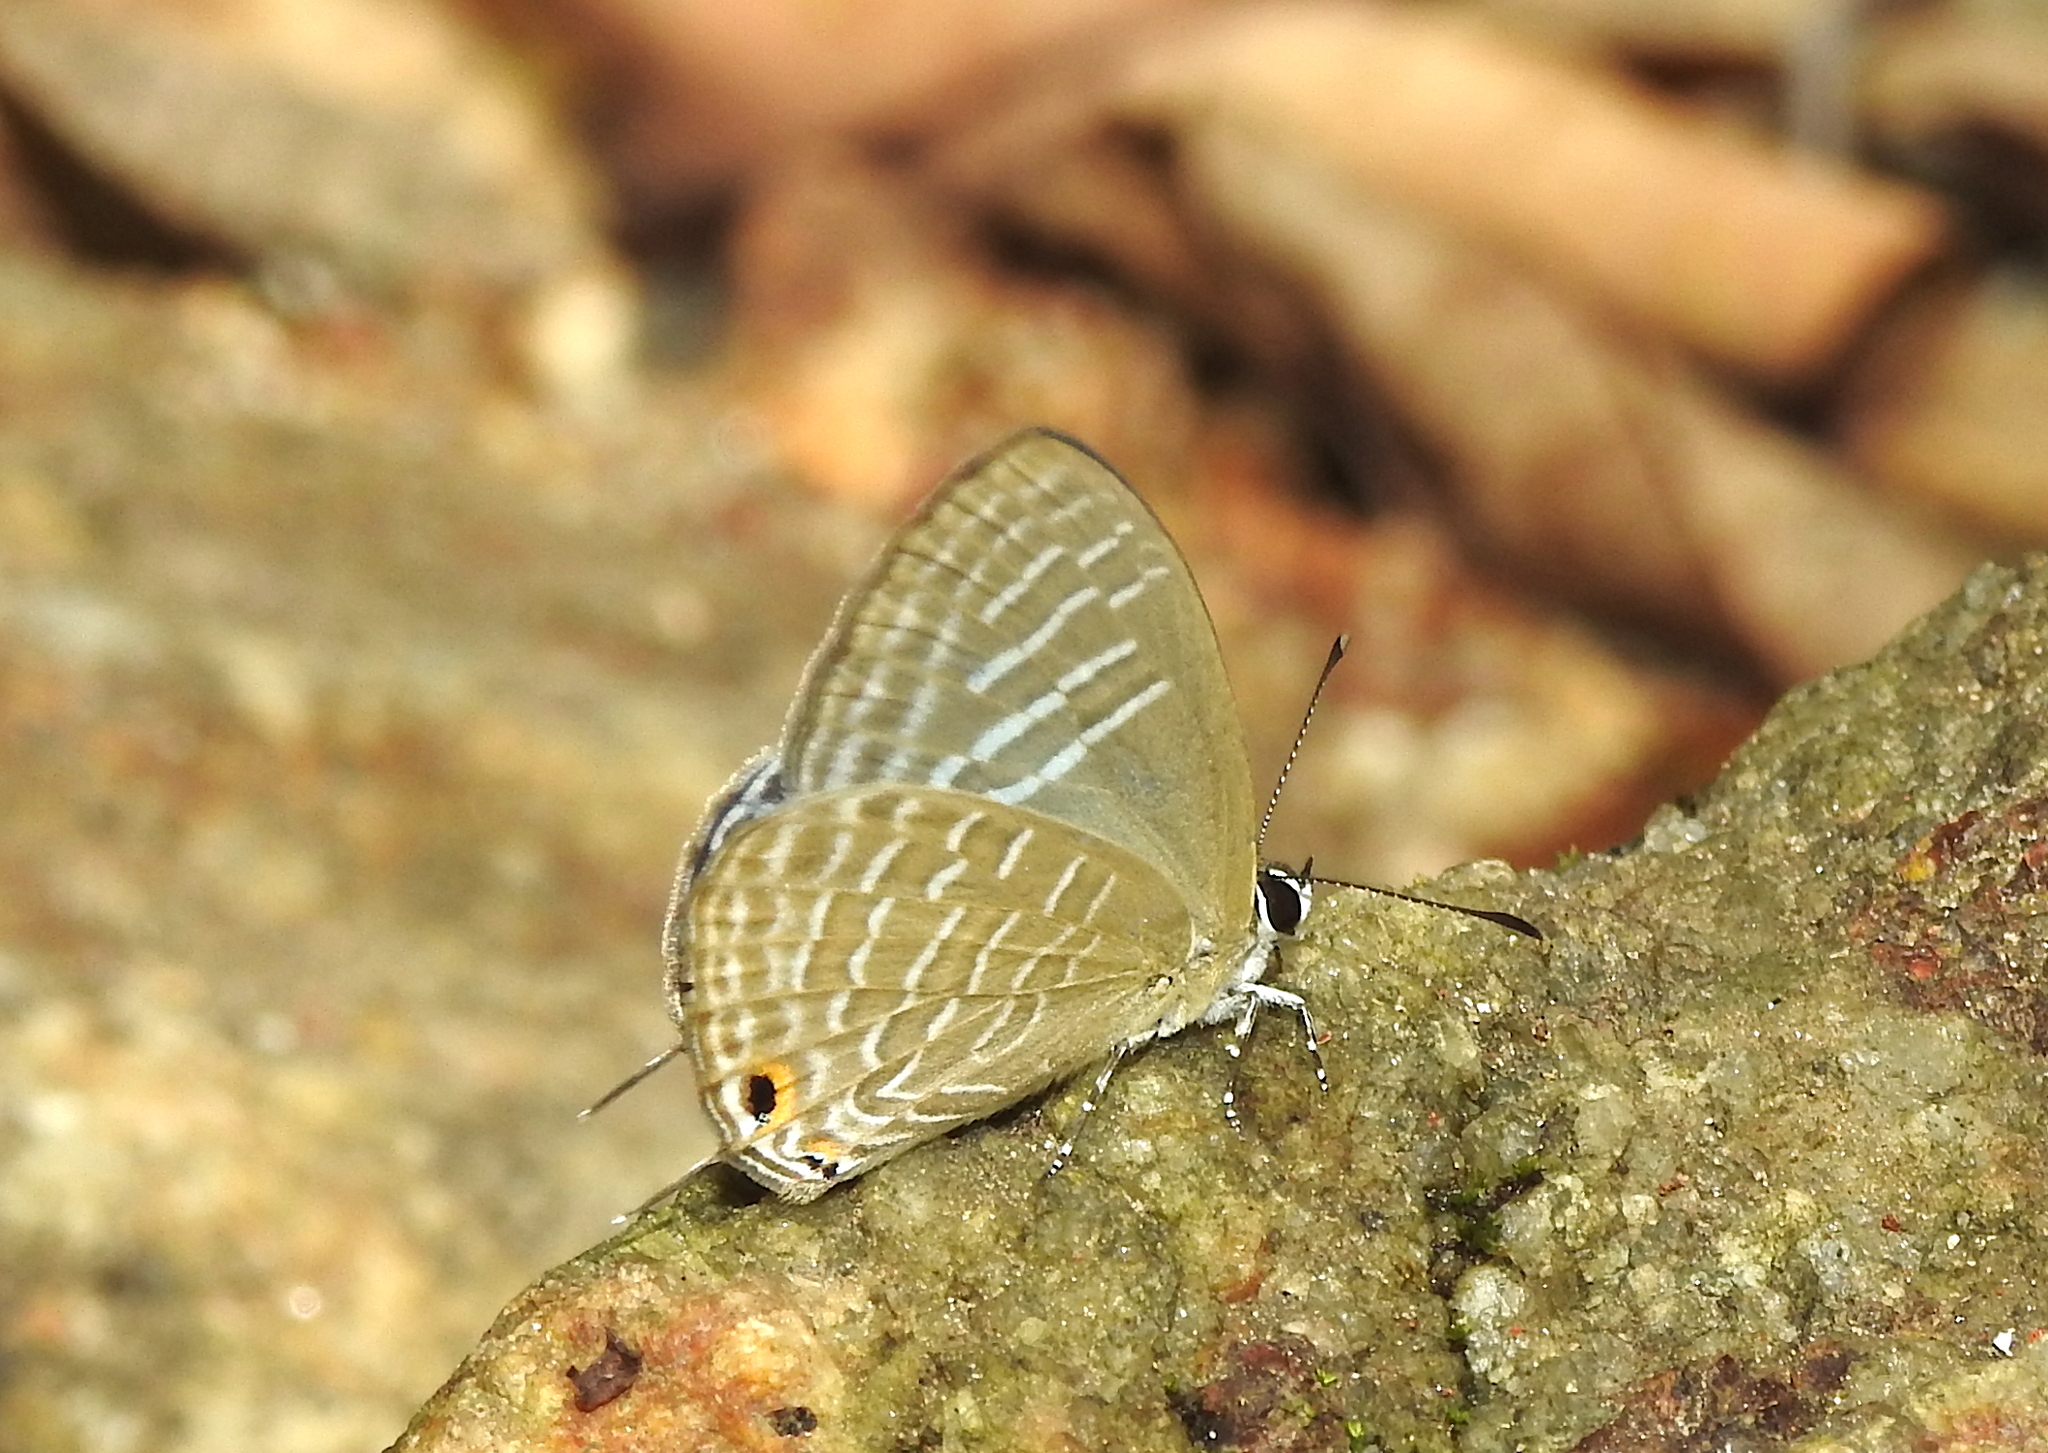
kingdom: Animalia
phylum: Arthropoda
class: Insecta
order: Lepidoptera
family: Lycaenidae
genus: Jamides
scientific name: Jamides alecto
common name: Metallic cerulean
